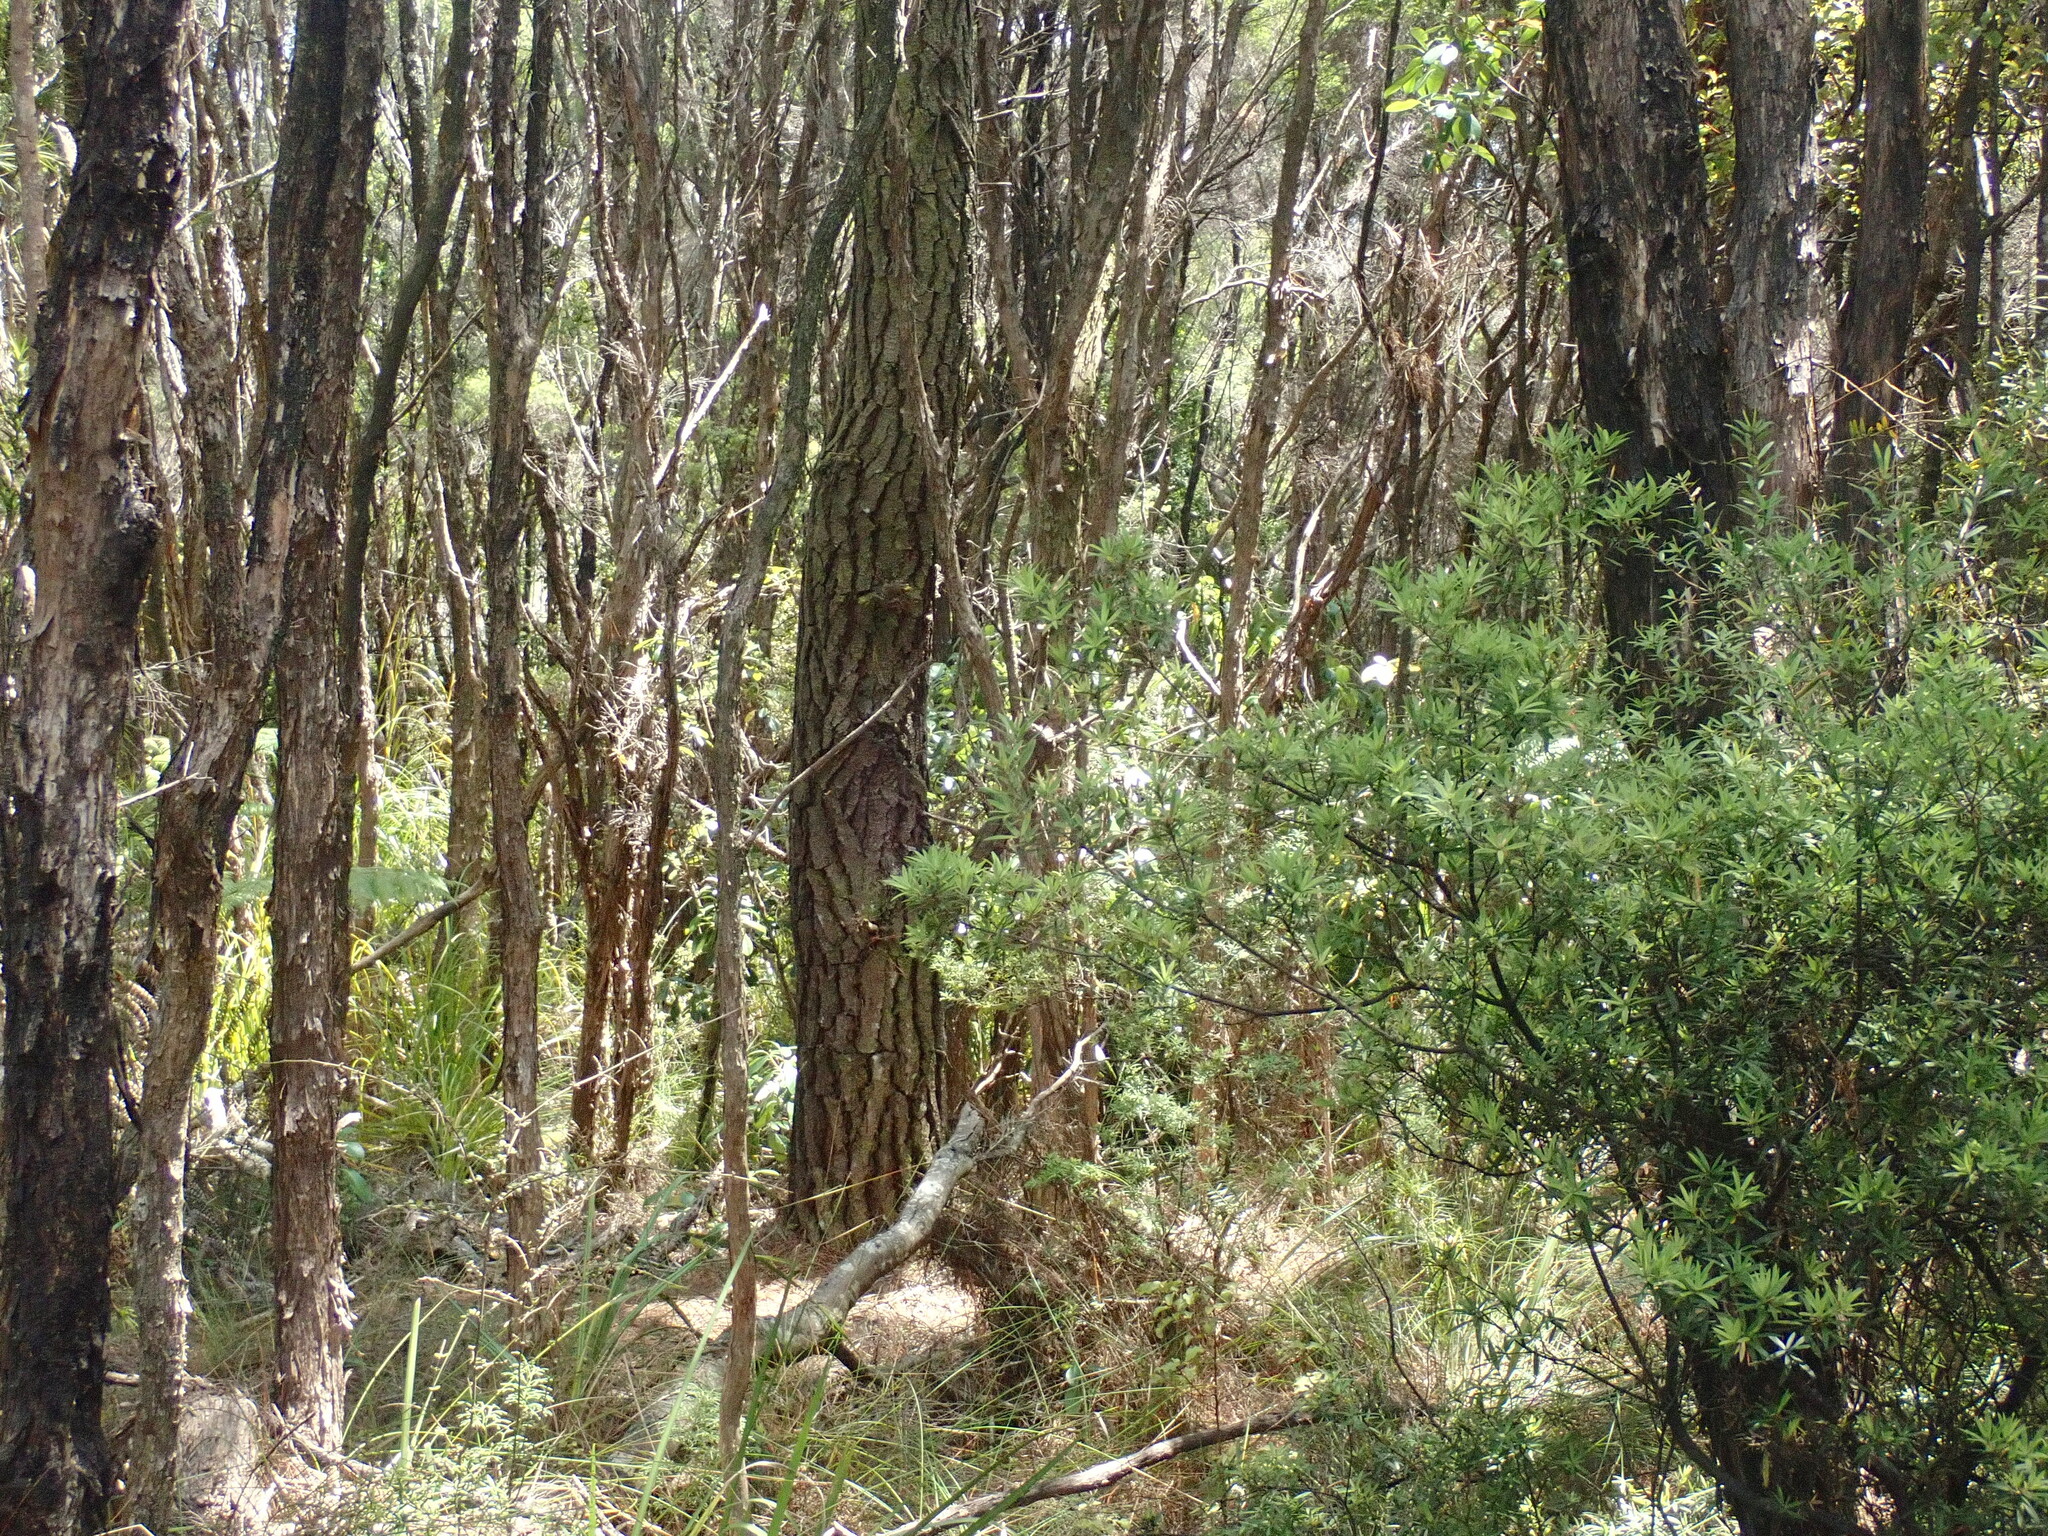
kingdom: Plantae
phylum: Tracheophyta
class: Magnoliopsida
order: Ericales
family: Ericaceae
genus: Leucopogon
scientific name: Leucopogon fasciculatus
